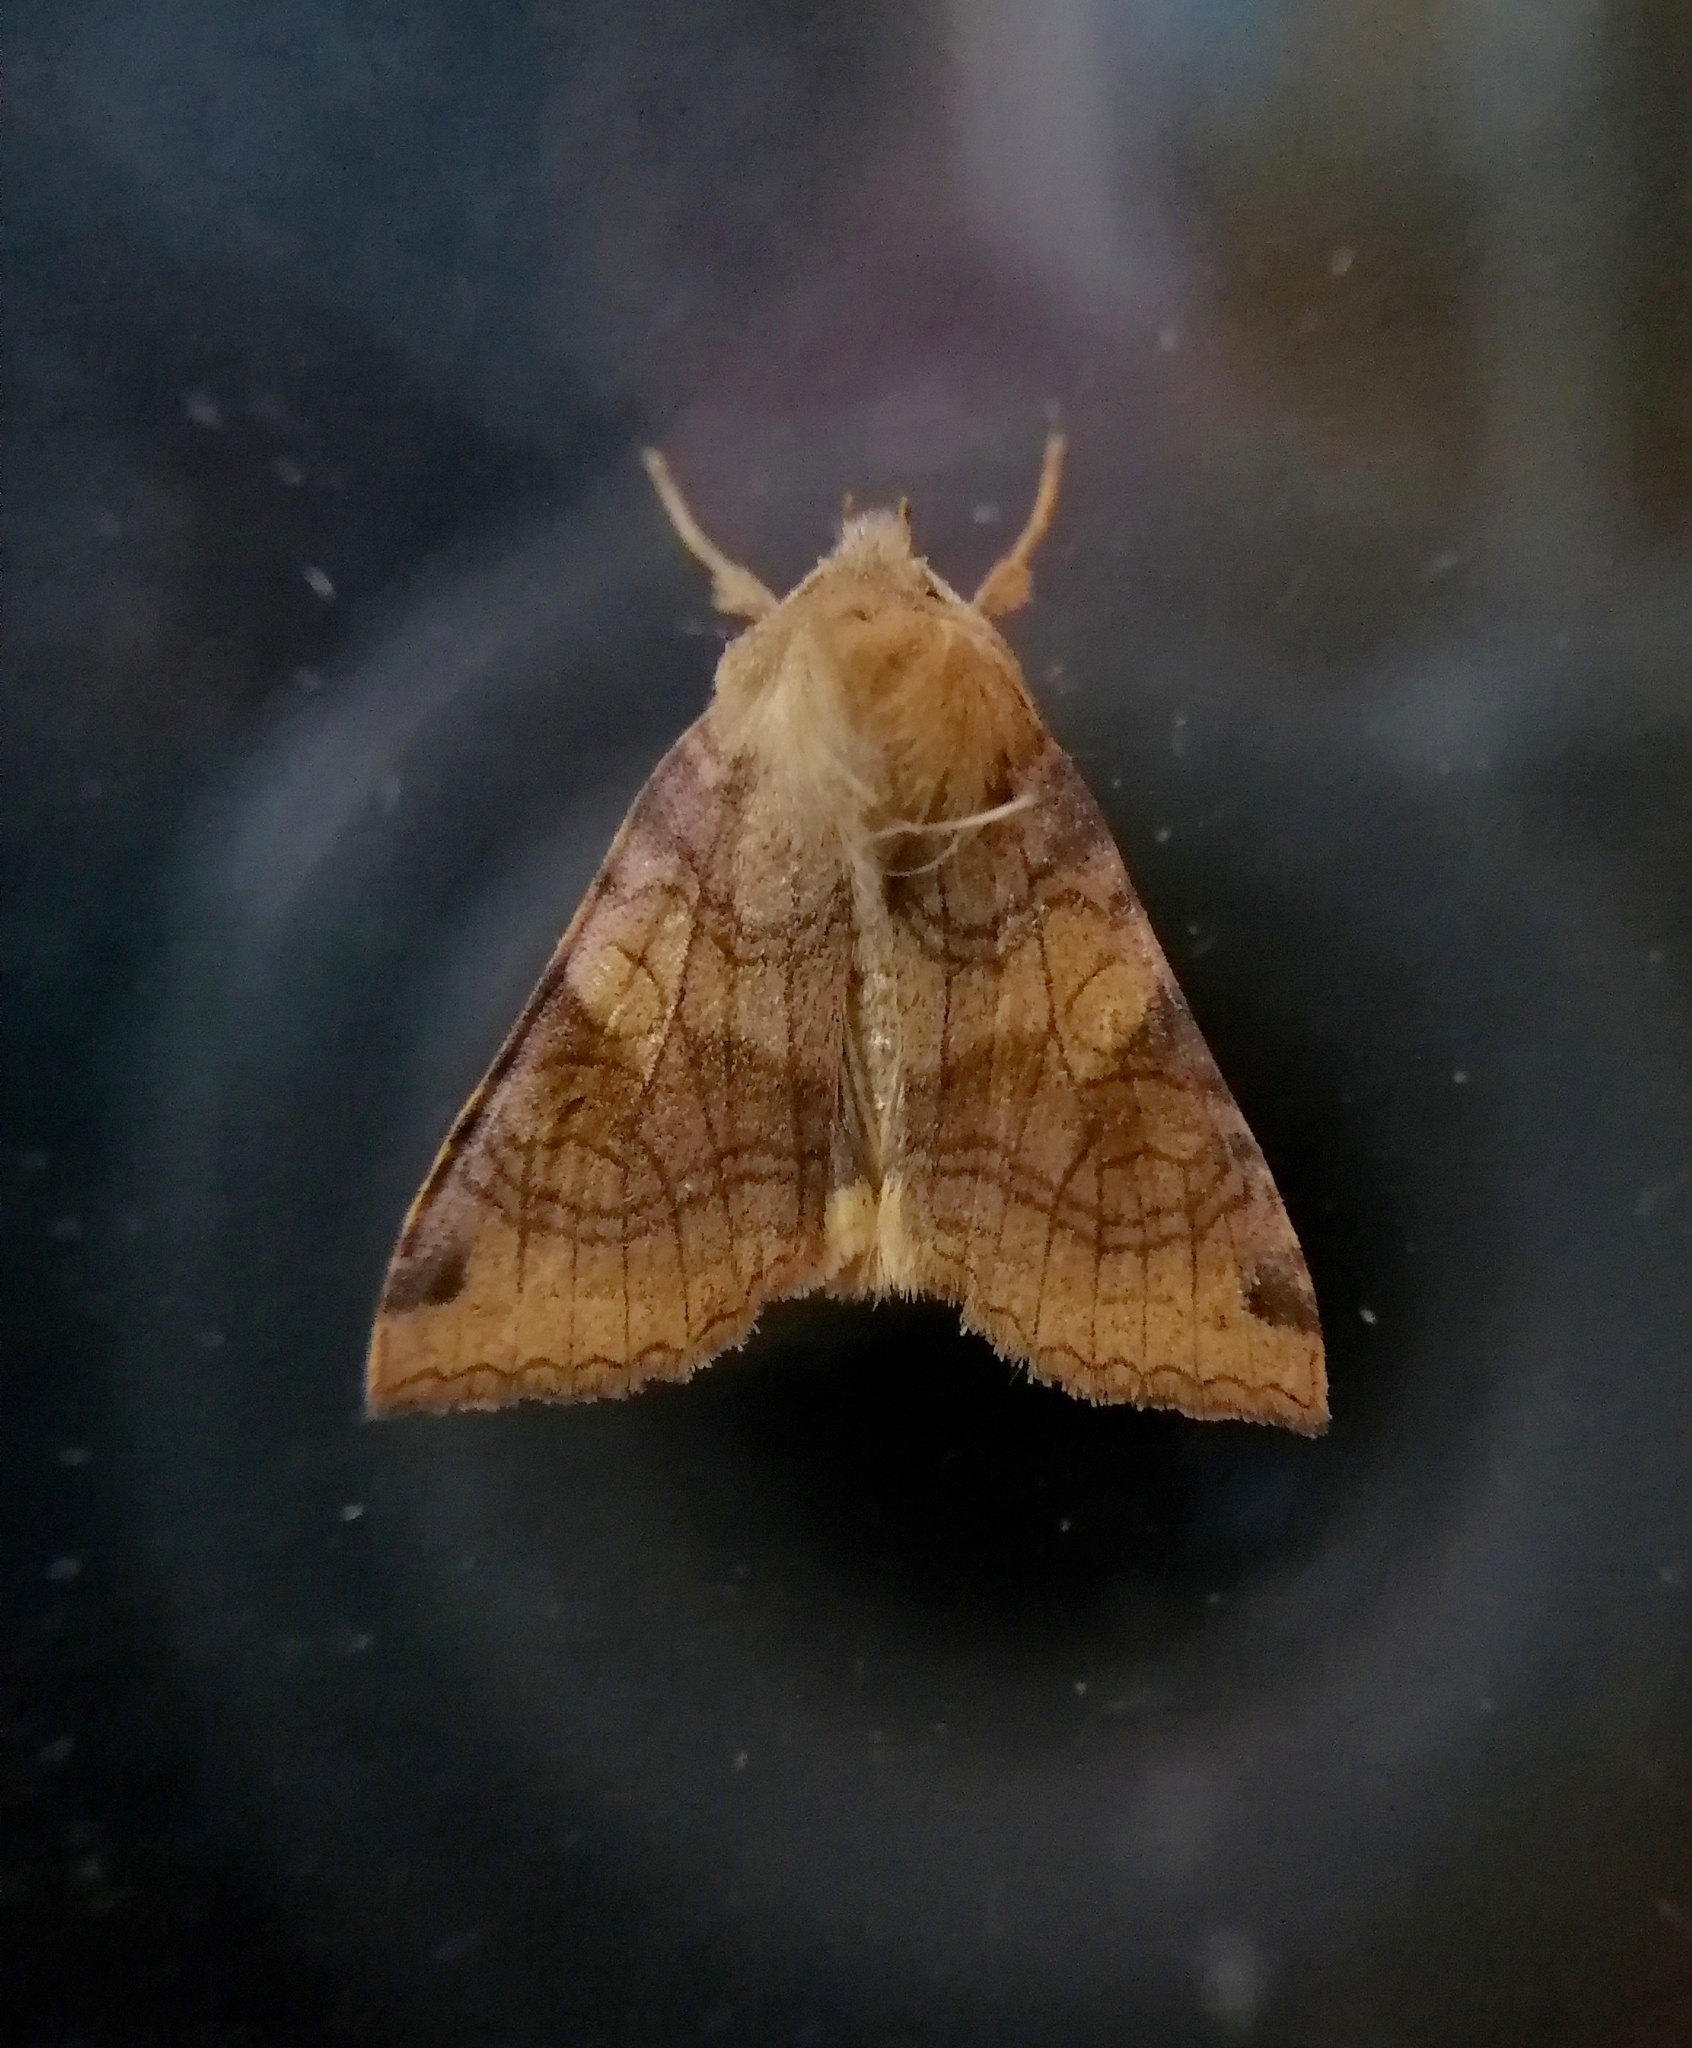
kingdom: Animalia
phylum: Arthropoda
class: Insecta
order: Lepidoptera
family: Noctuidae
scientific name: Noctuidae
